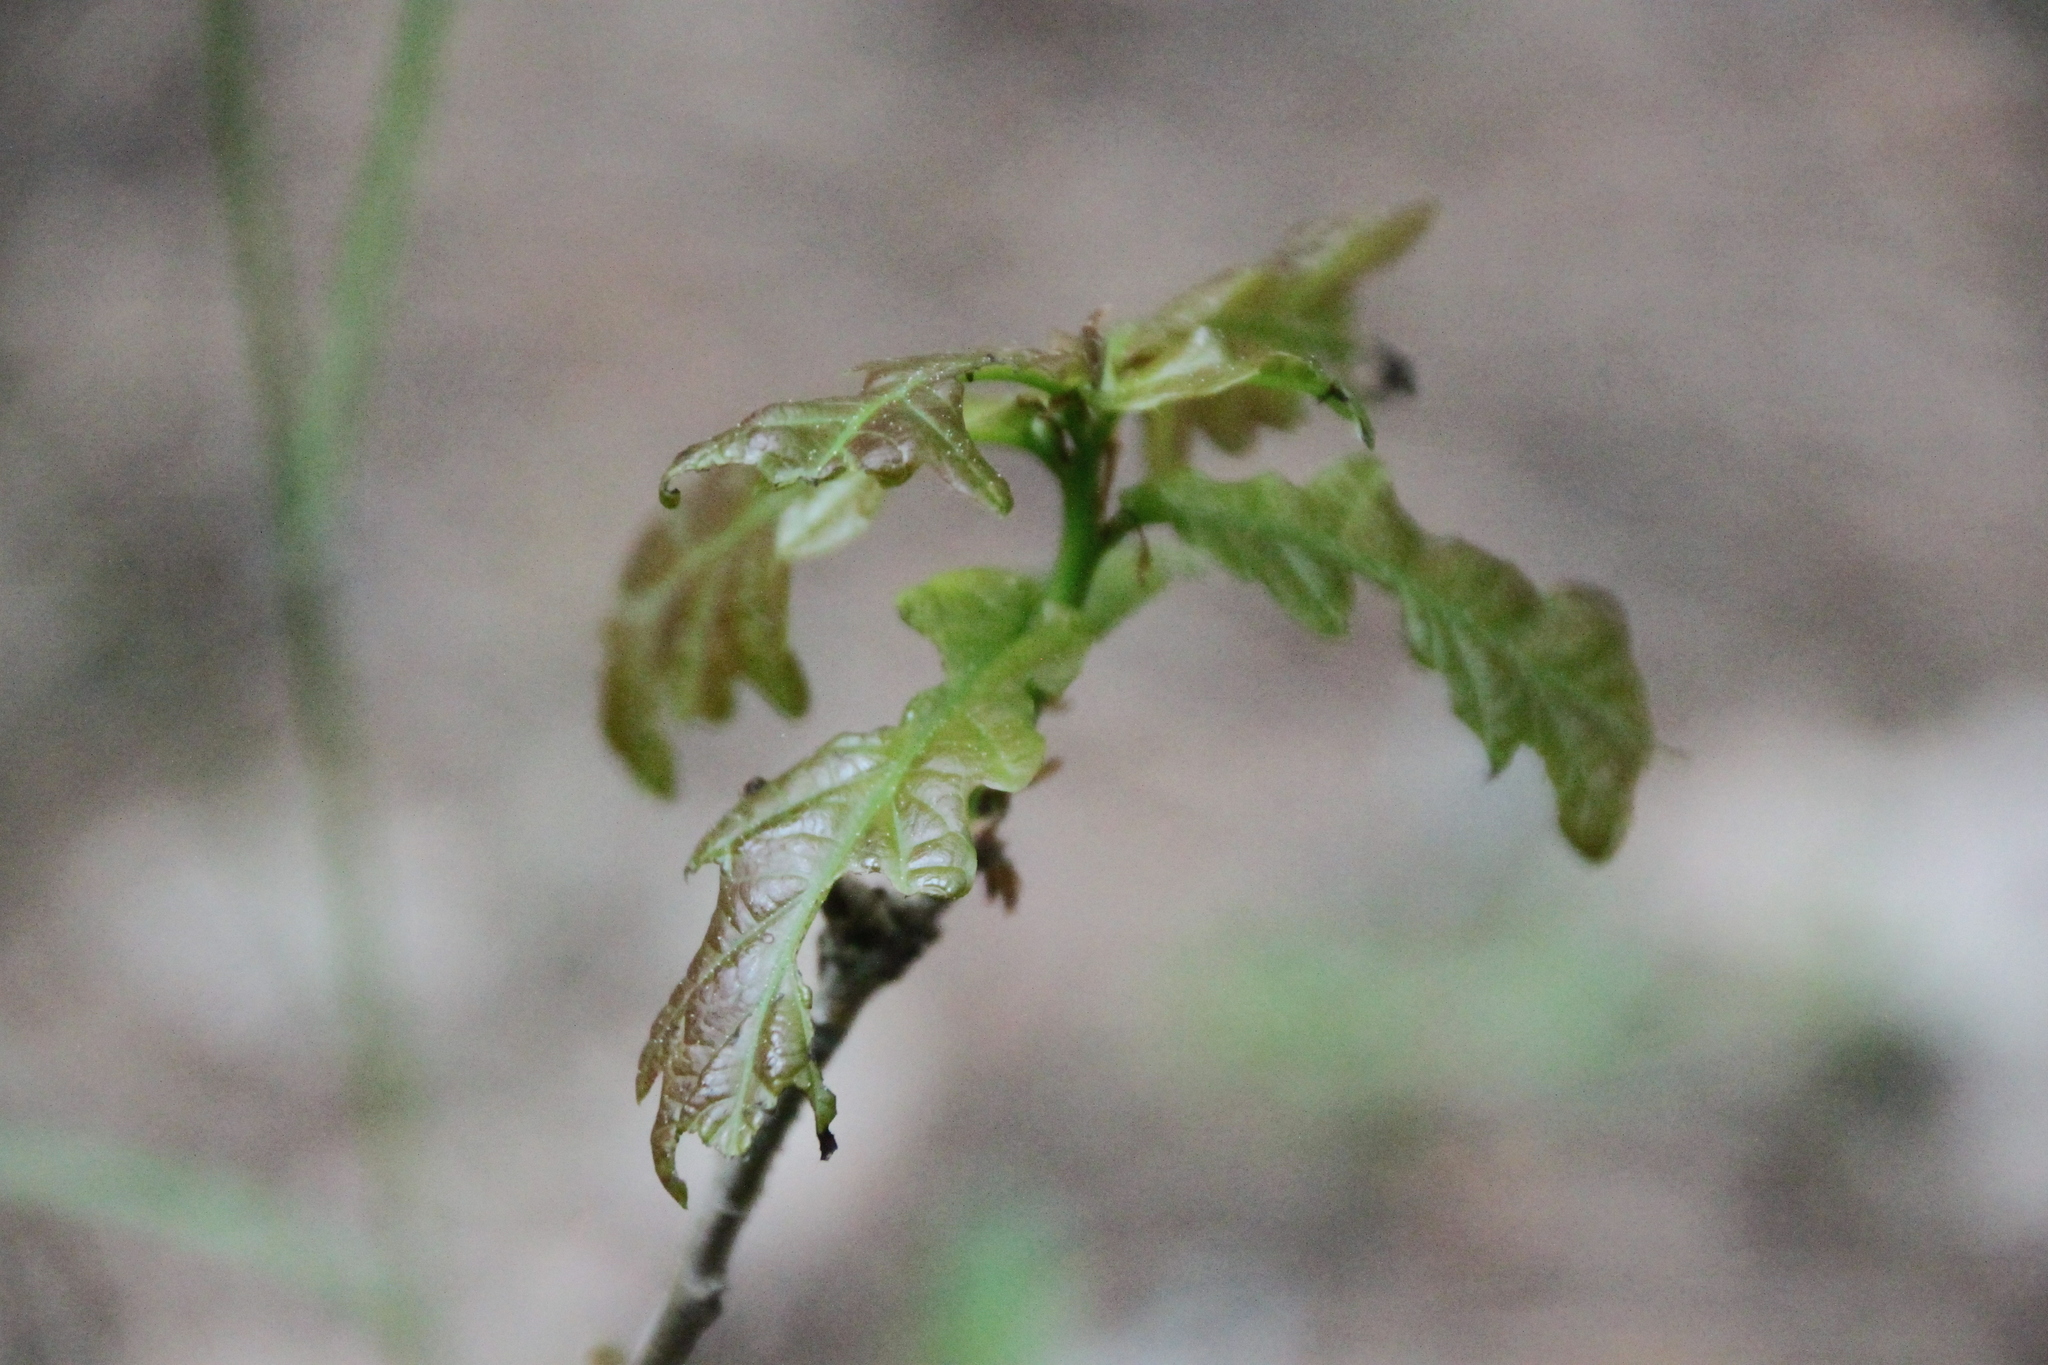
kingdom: Plantae
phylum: Tracheophyta
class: Magnoliopsida
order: Fagales
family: Fagaceae
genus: Quercus
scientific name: Quercus robur
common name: Pedunculate oak
